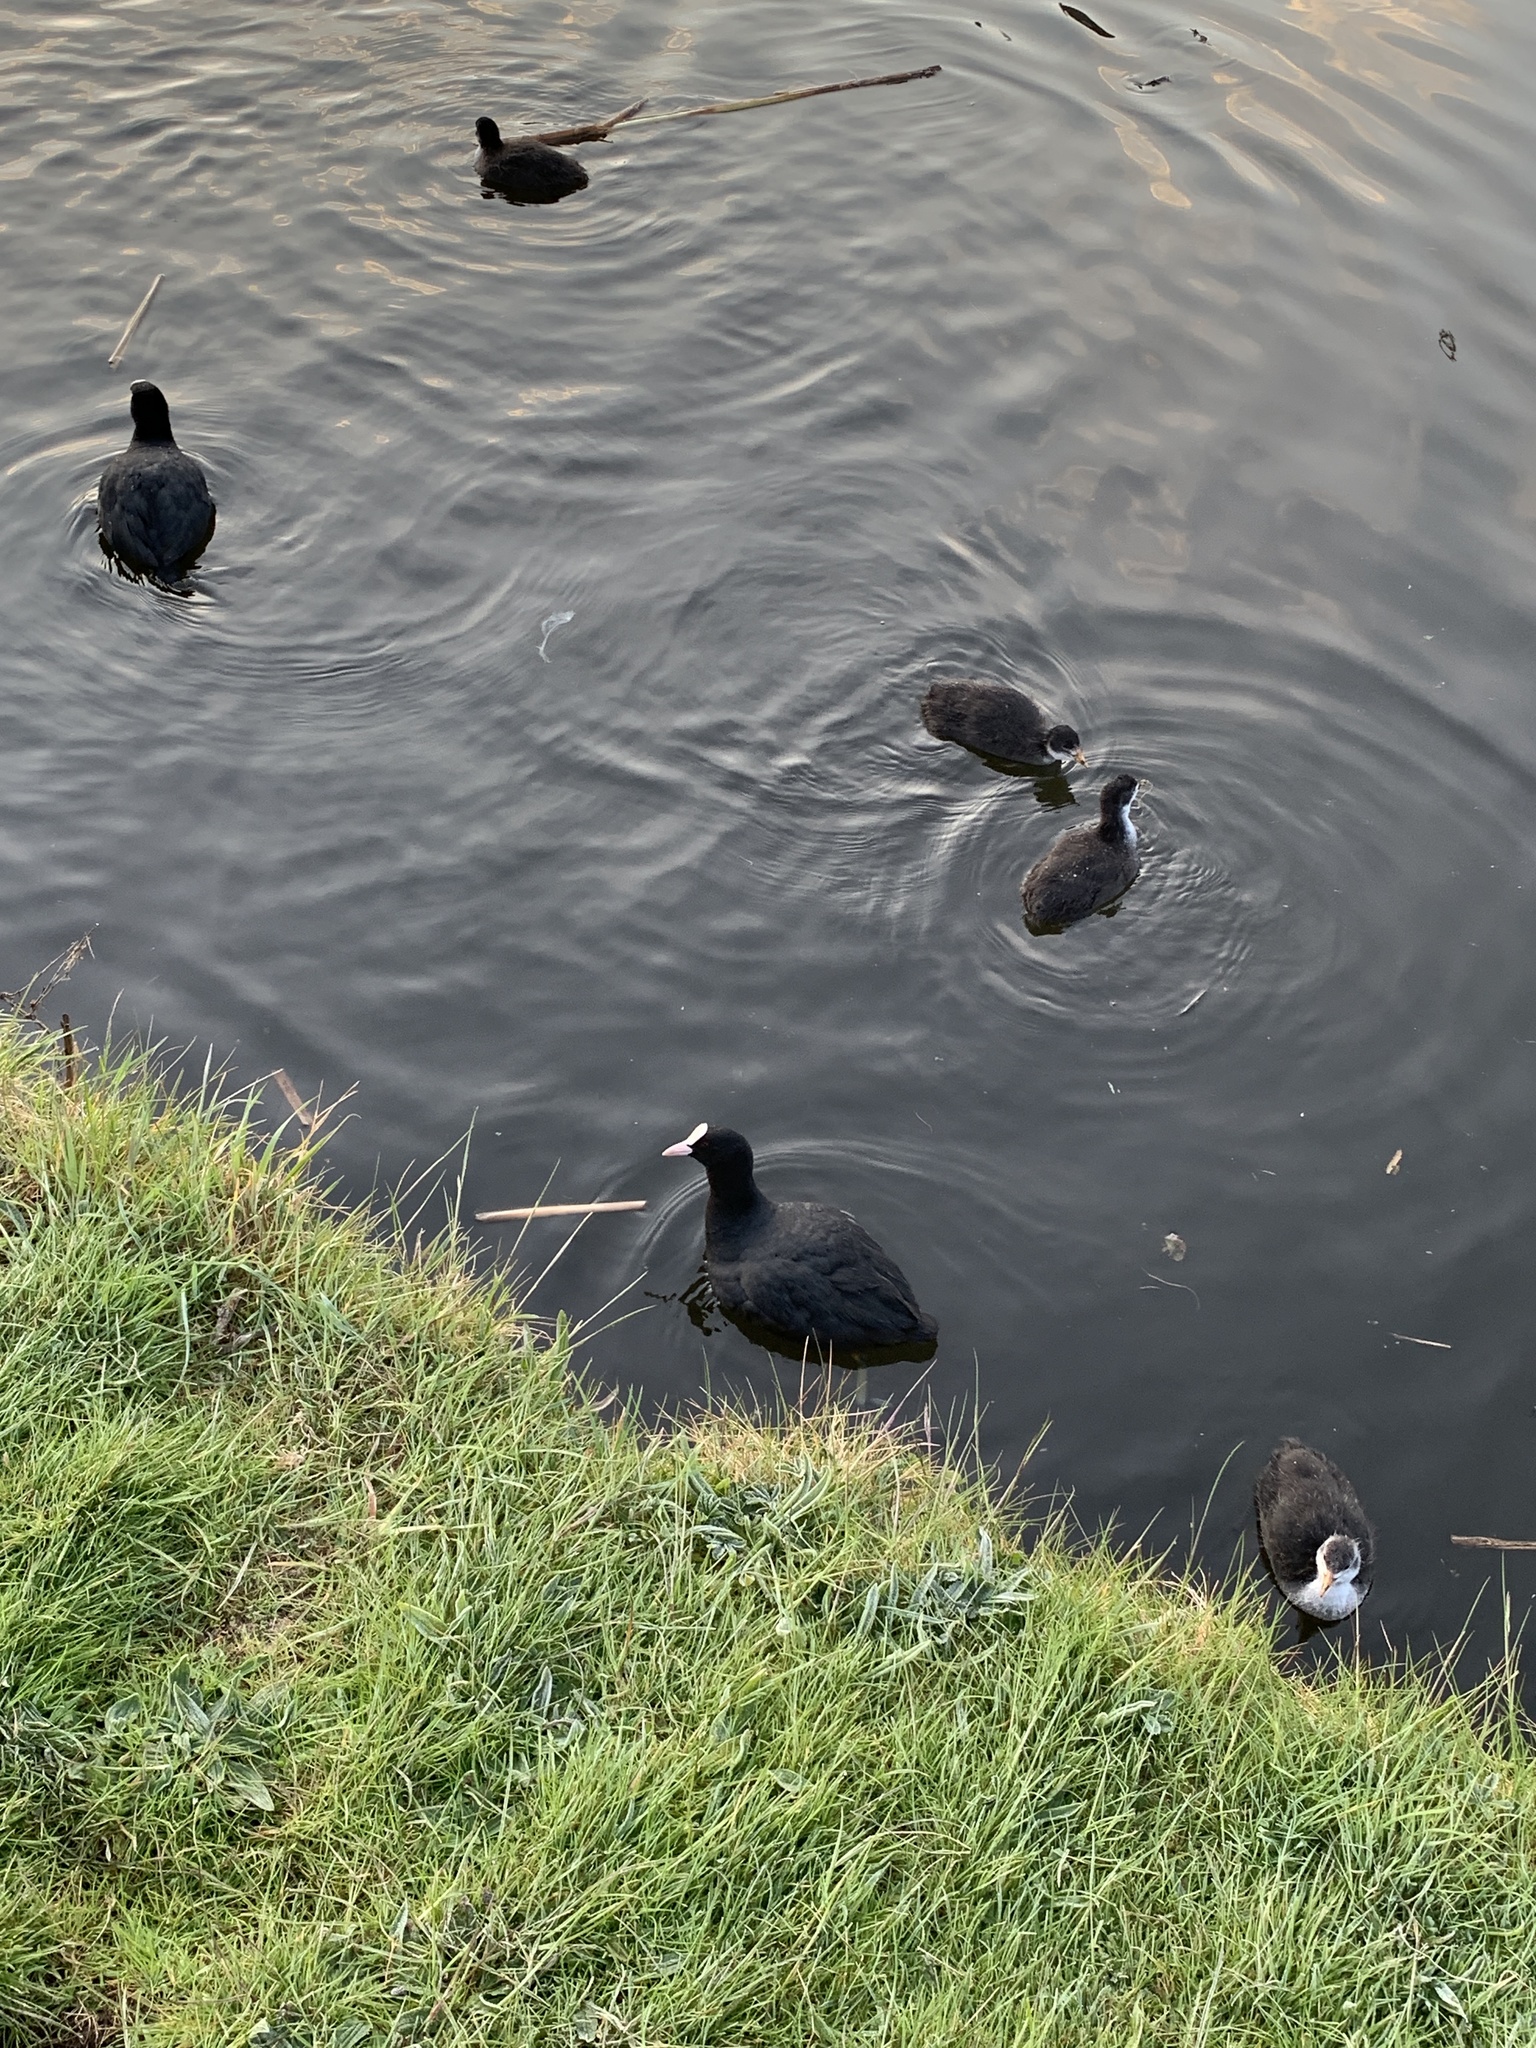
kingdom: Animalia
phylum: Chordata
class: Aves
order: Gruiformes
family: Rallidae
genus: Fulica
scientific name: Fulica atra
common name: Eurasian coot
